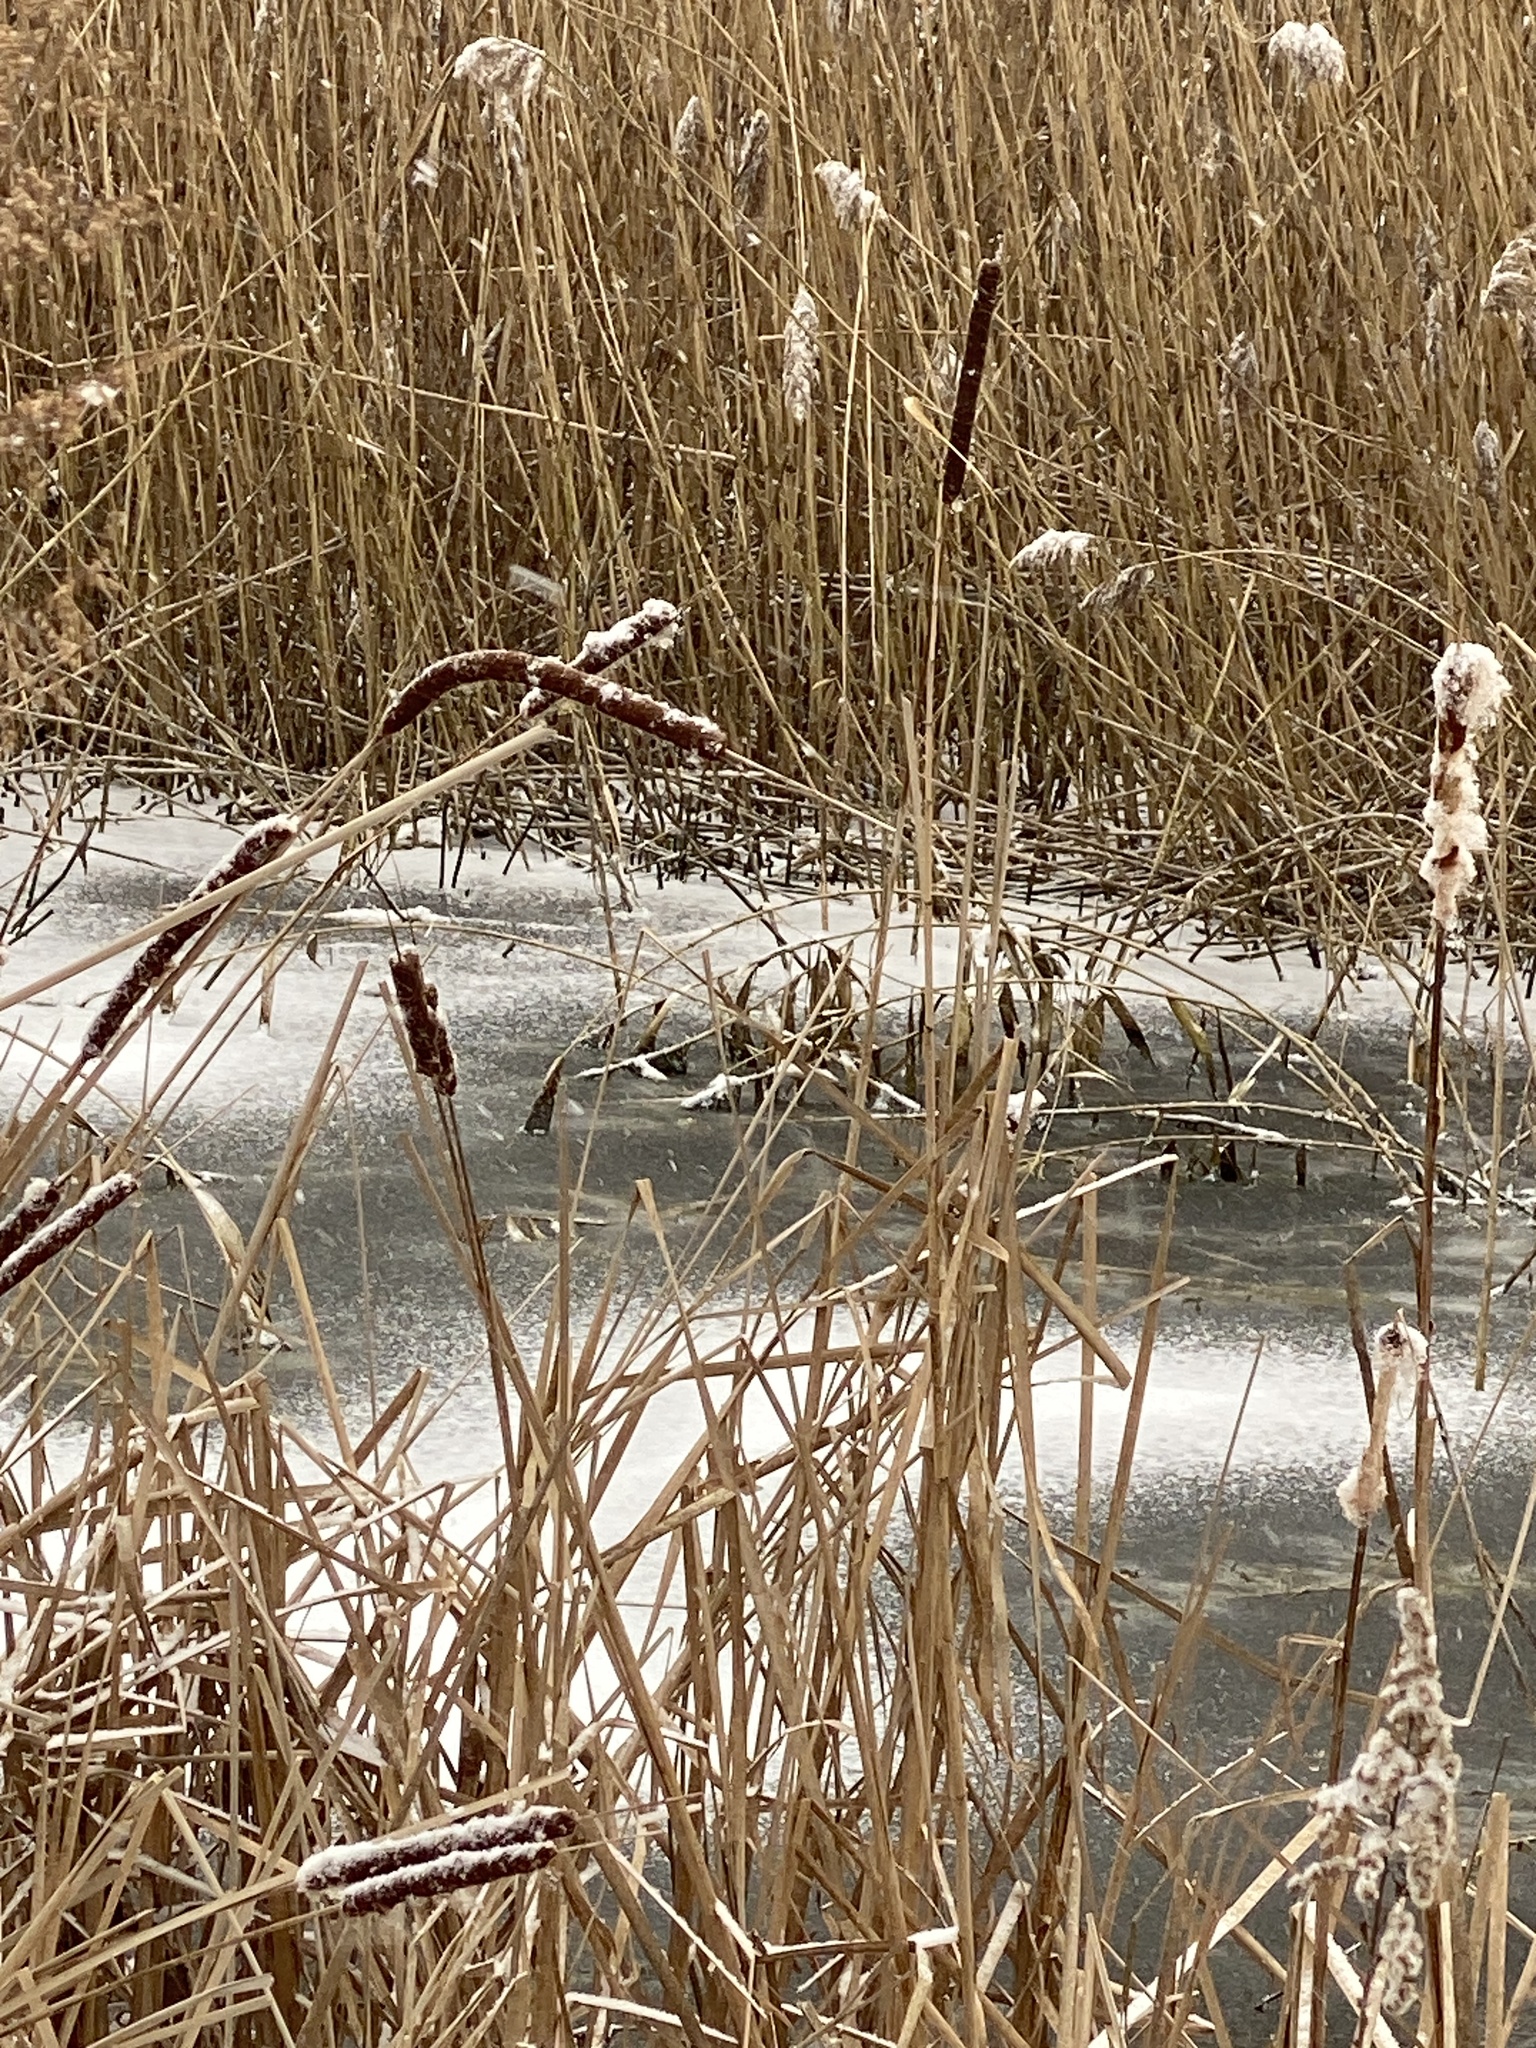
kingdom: Plantae
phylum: Tracheophyta
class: Liliopsida
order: Poales
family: Typhaceae
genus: Typha
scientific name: Typha
